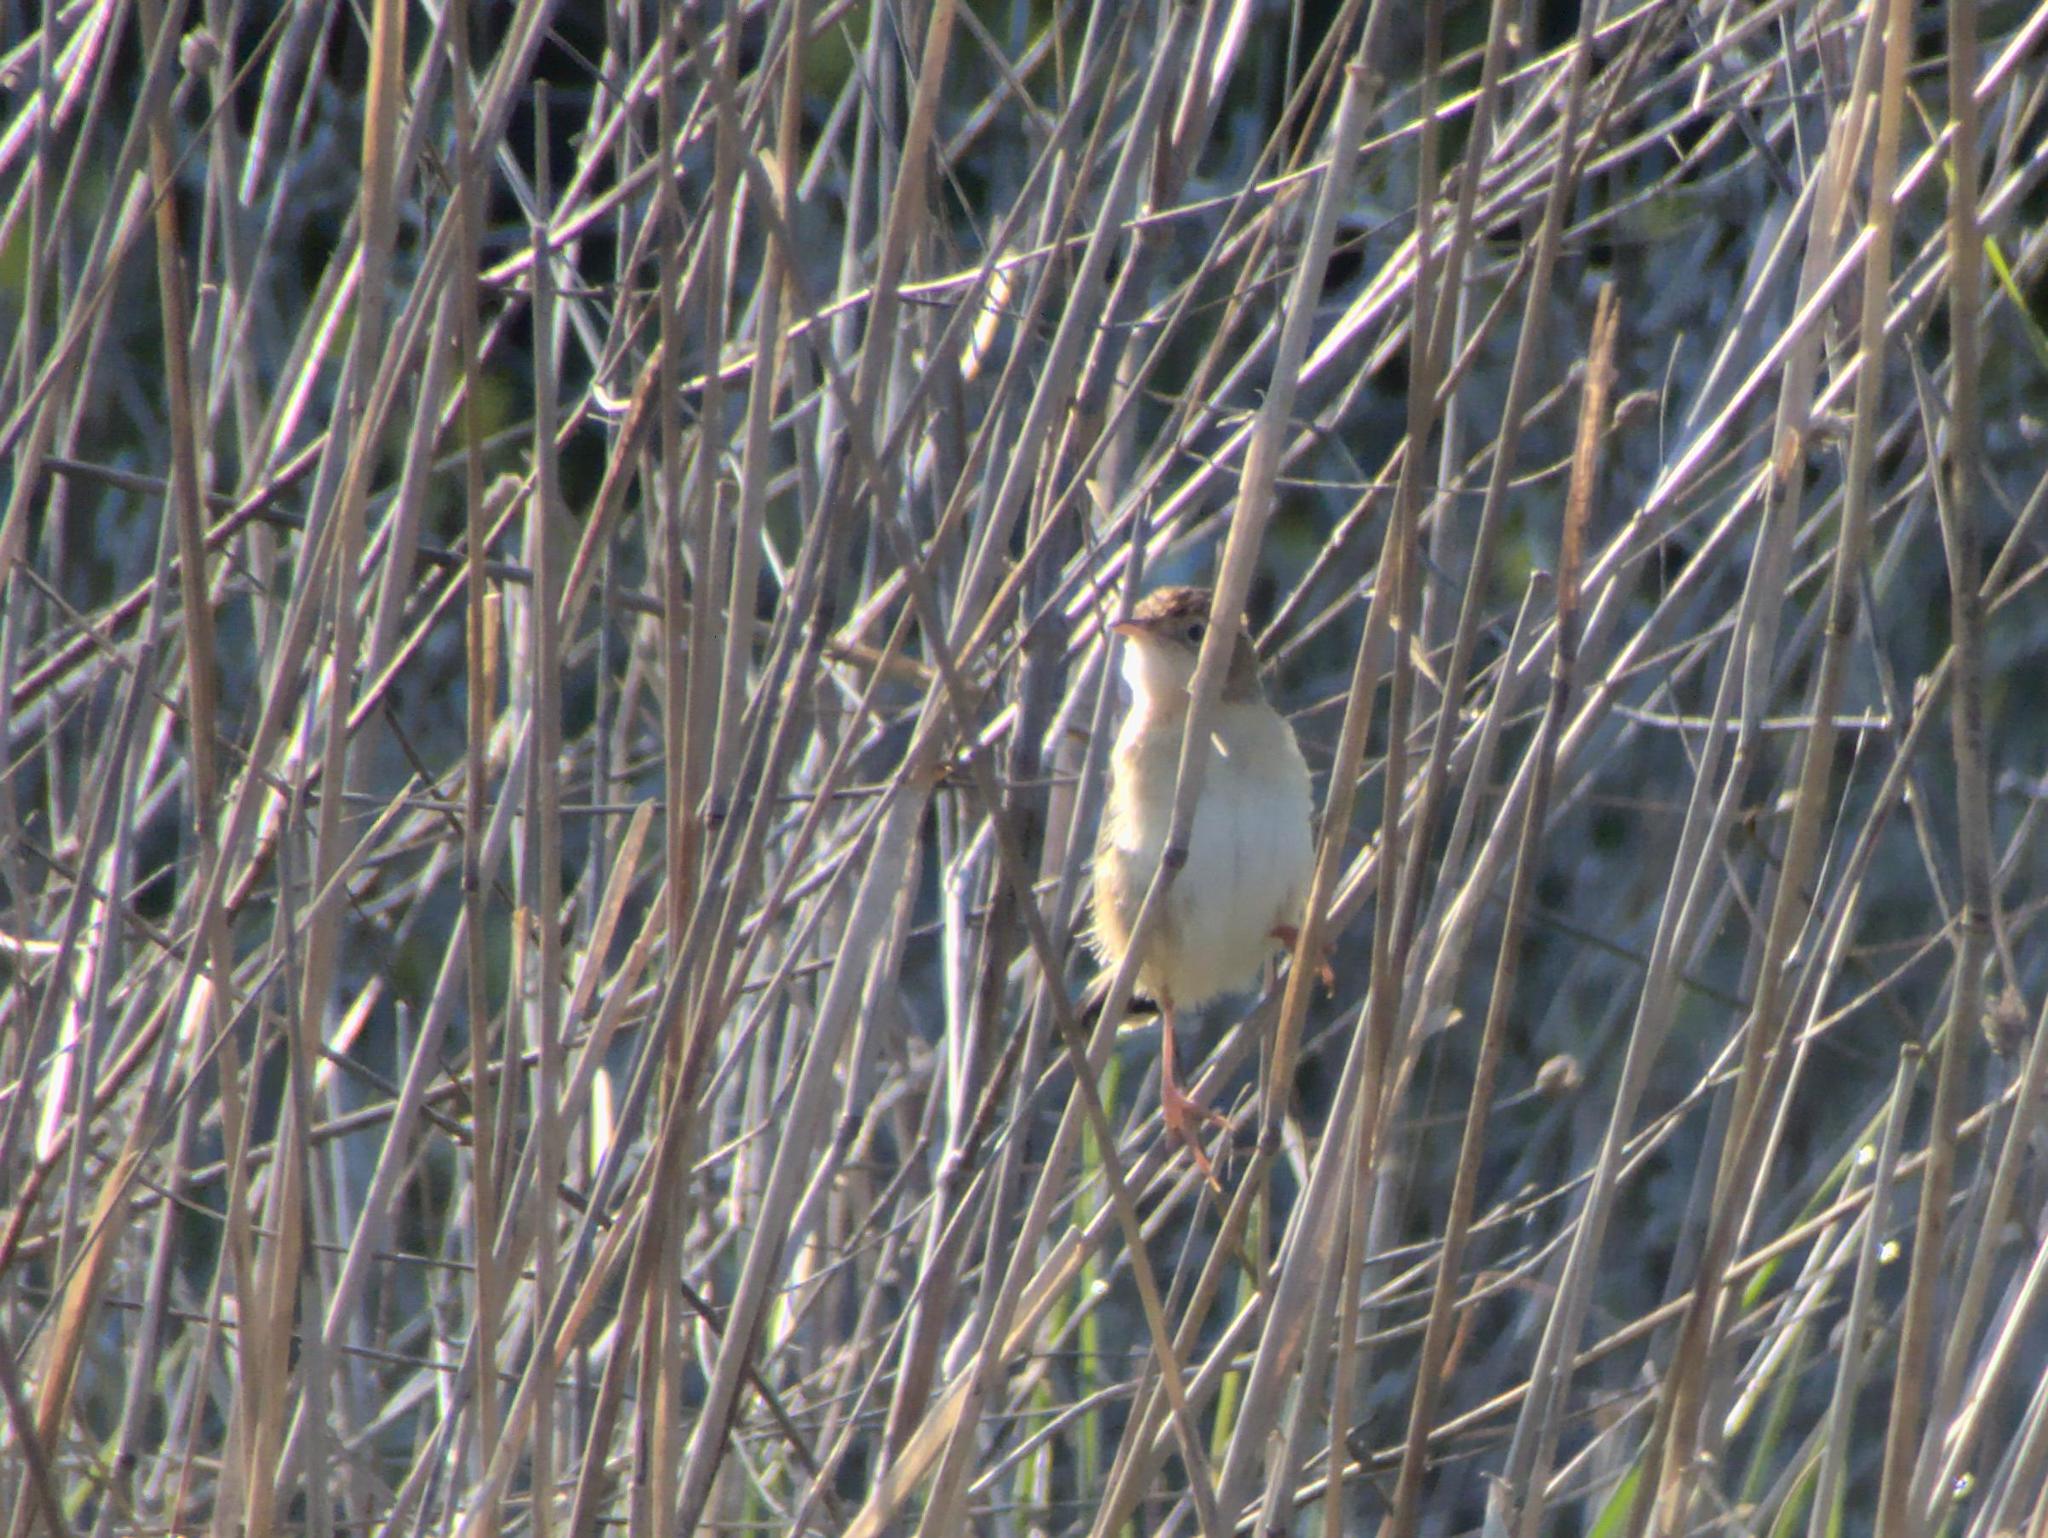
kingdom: Animalia
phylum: Chordata
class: Aves
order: Passeriformes
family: Cisticolidae
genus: Cisticola
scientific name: Cisticola juncidis
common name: Zitting cisticola
